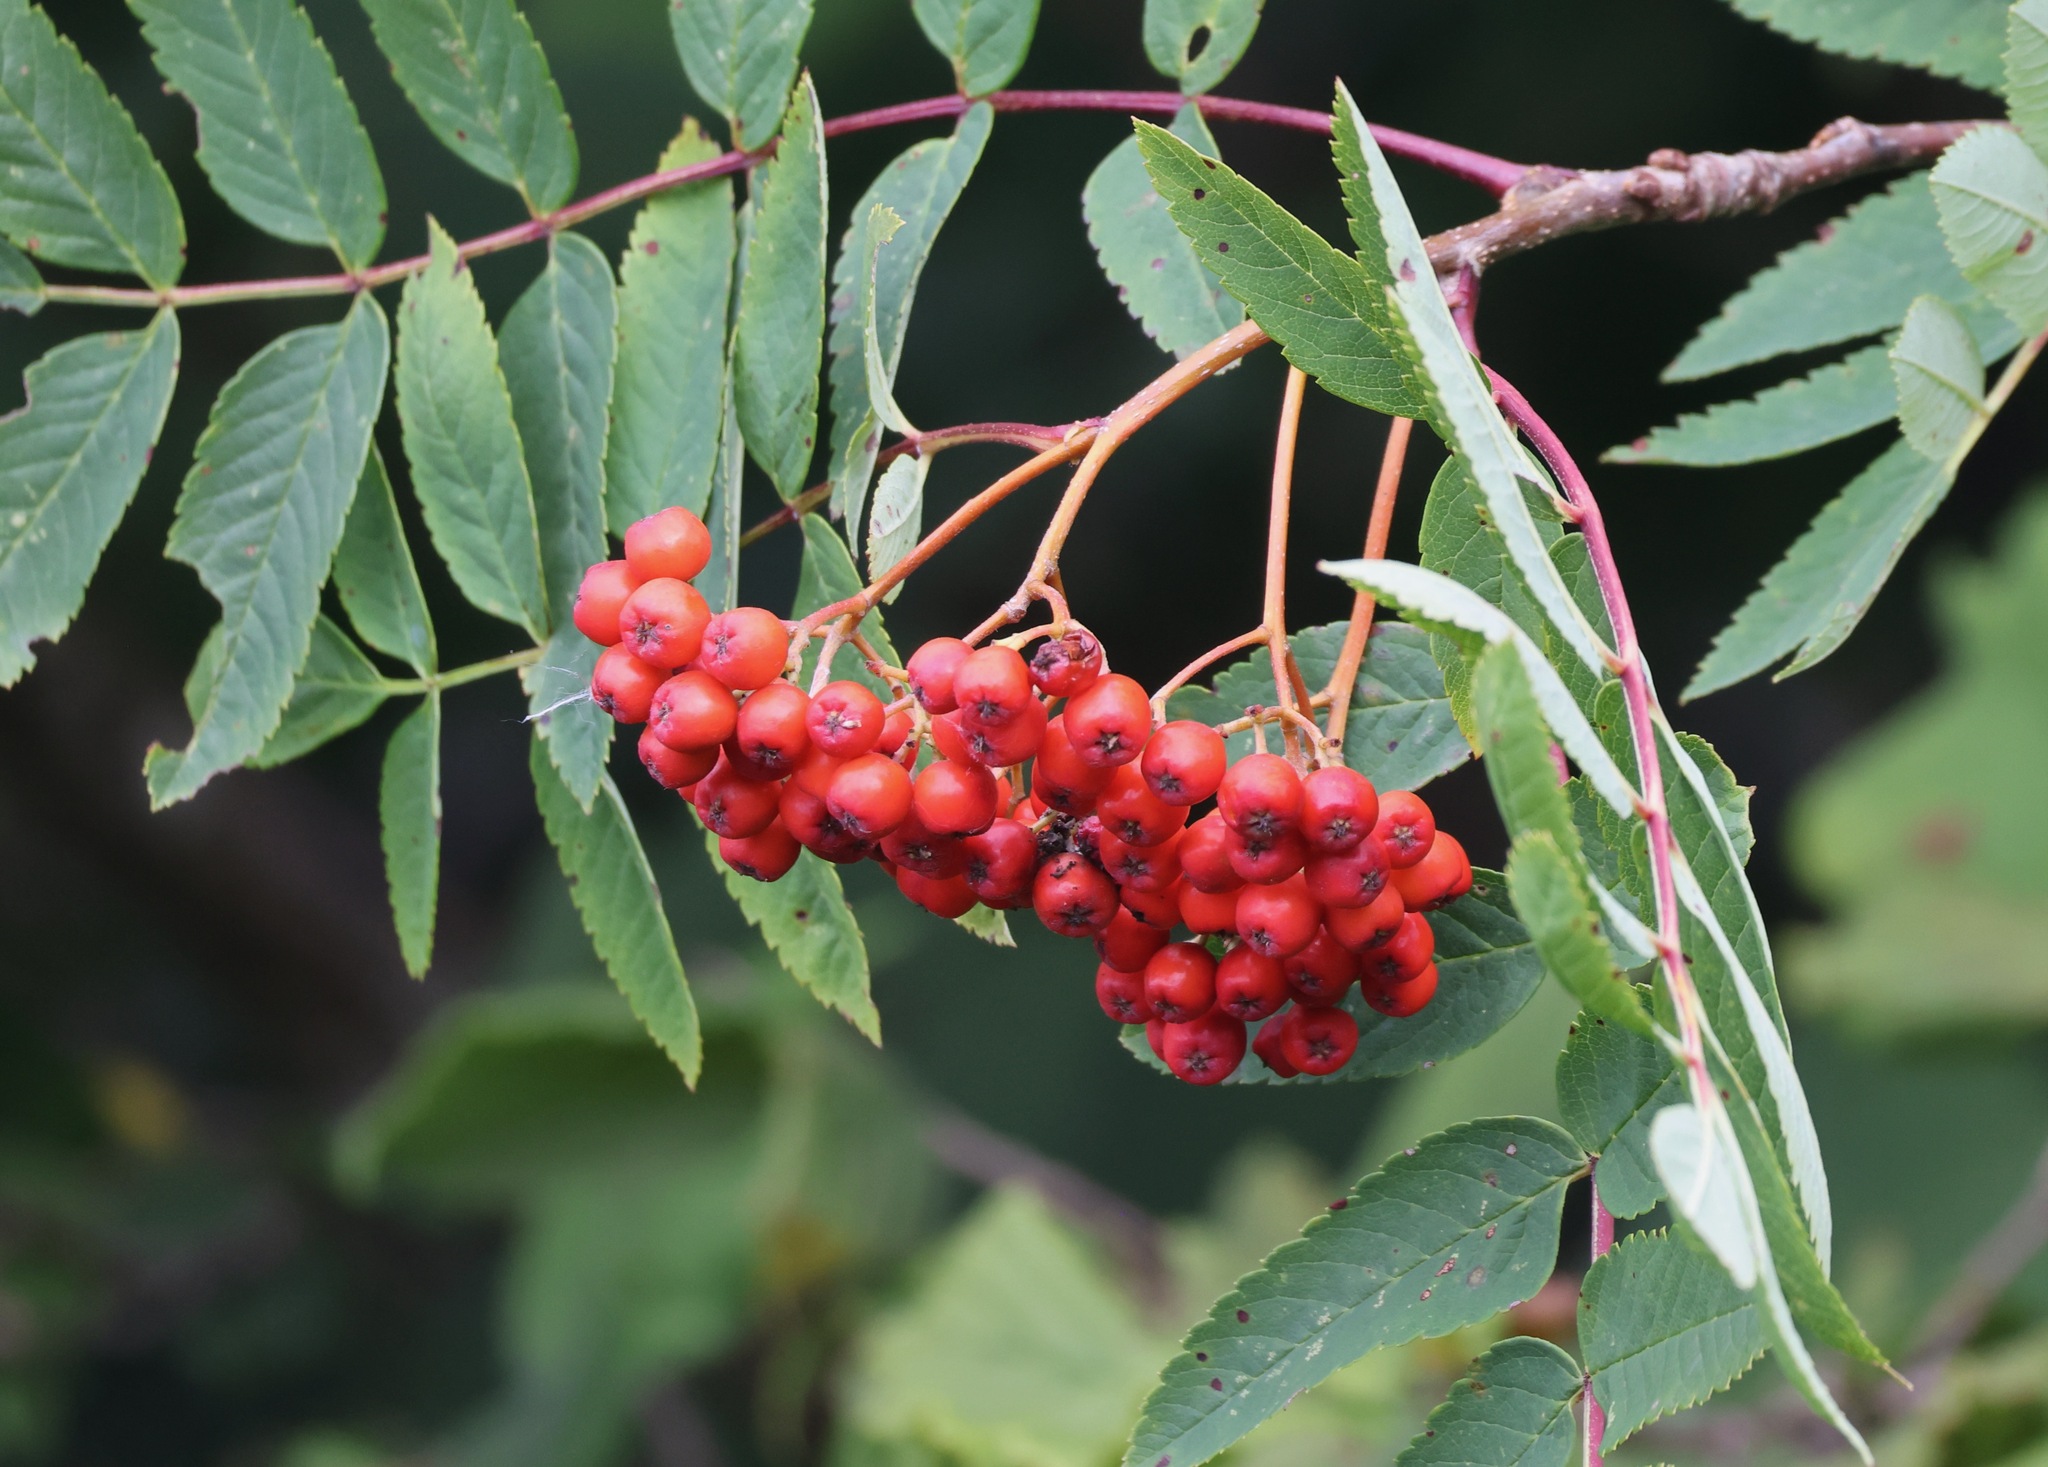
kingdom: Plantae
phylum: Tracheophyta
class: Magnoliopsida
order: Rosales
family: Rosaceae
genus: Sorbus
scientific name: Sorbus aucuparia
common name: Rowan
